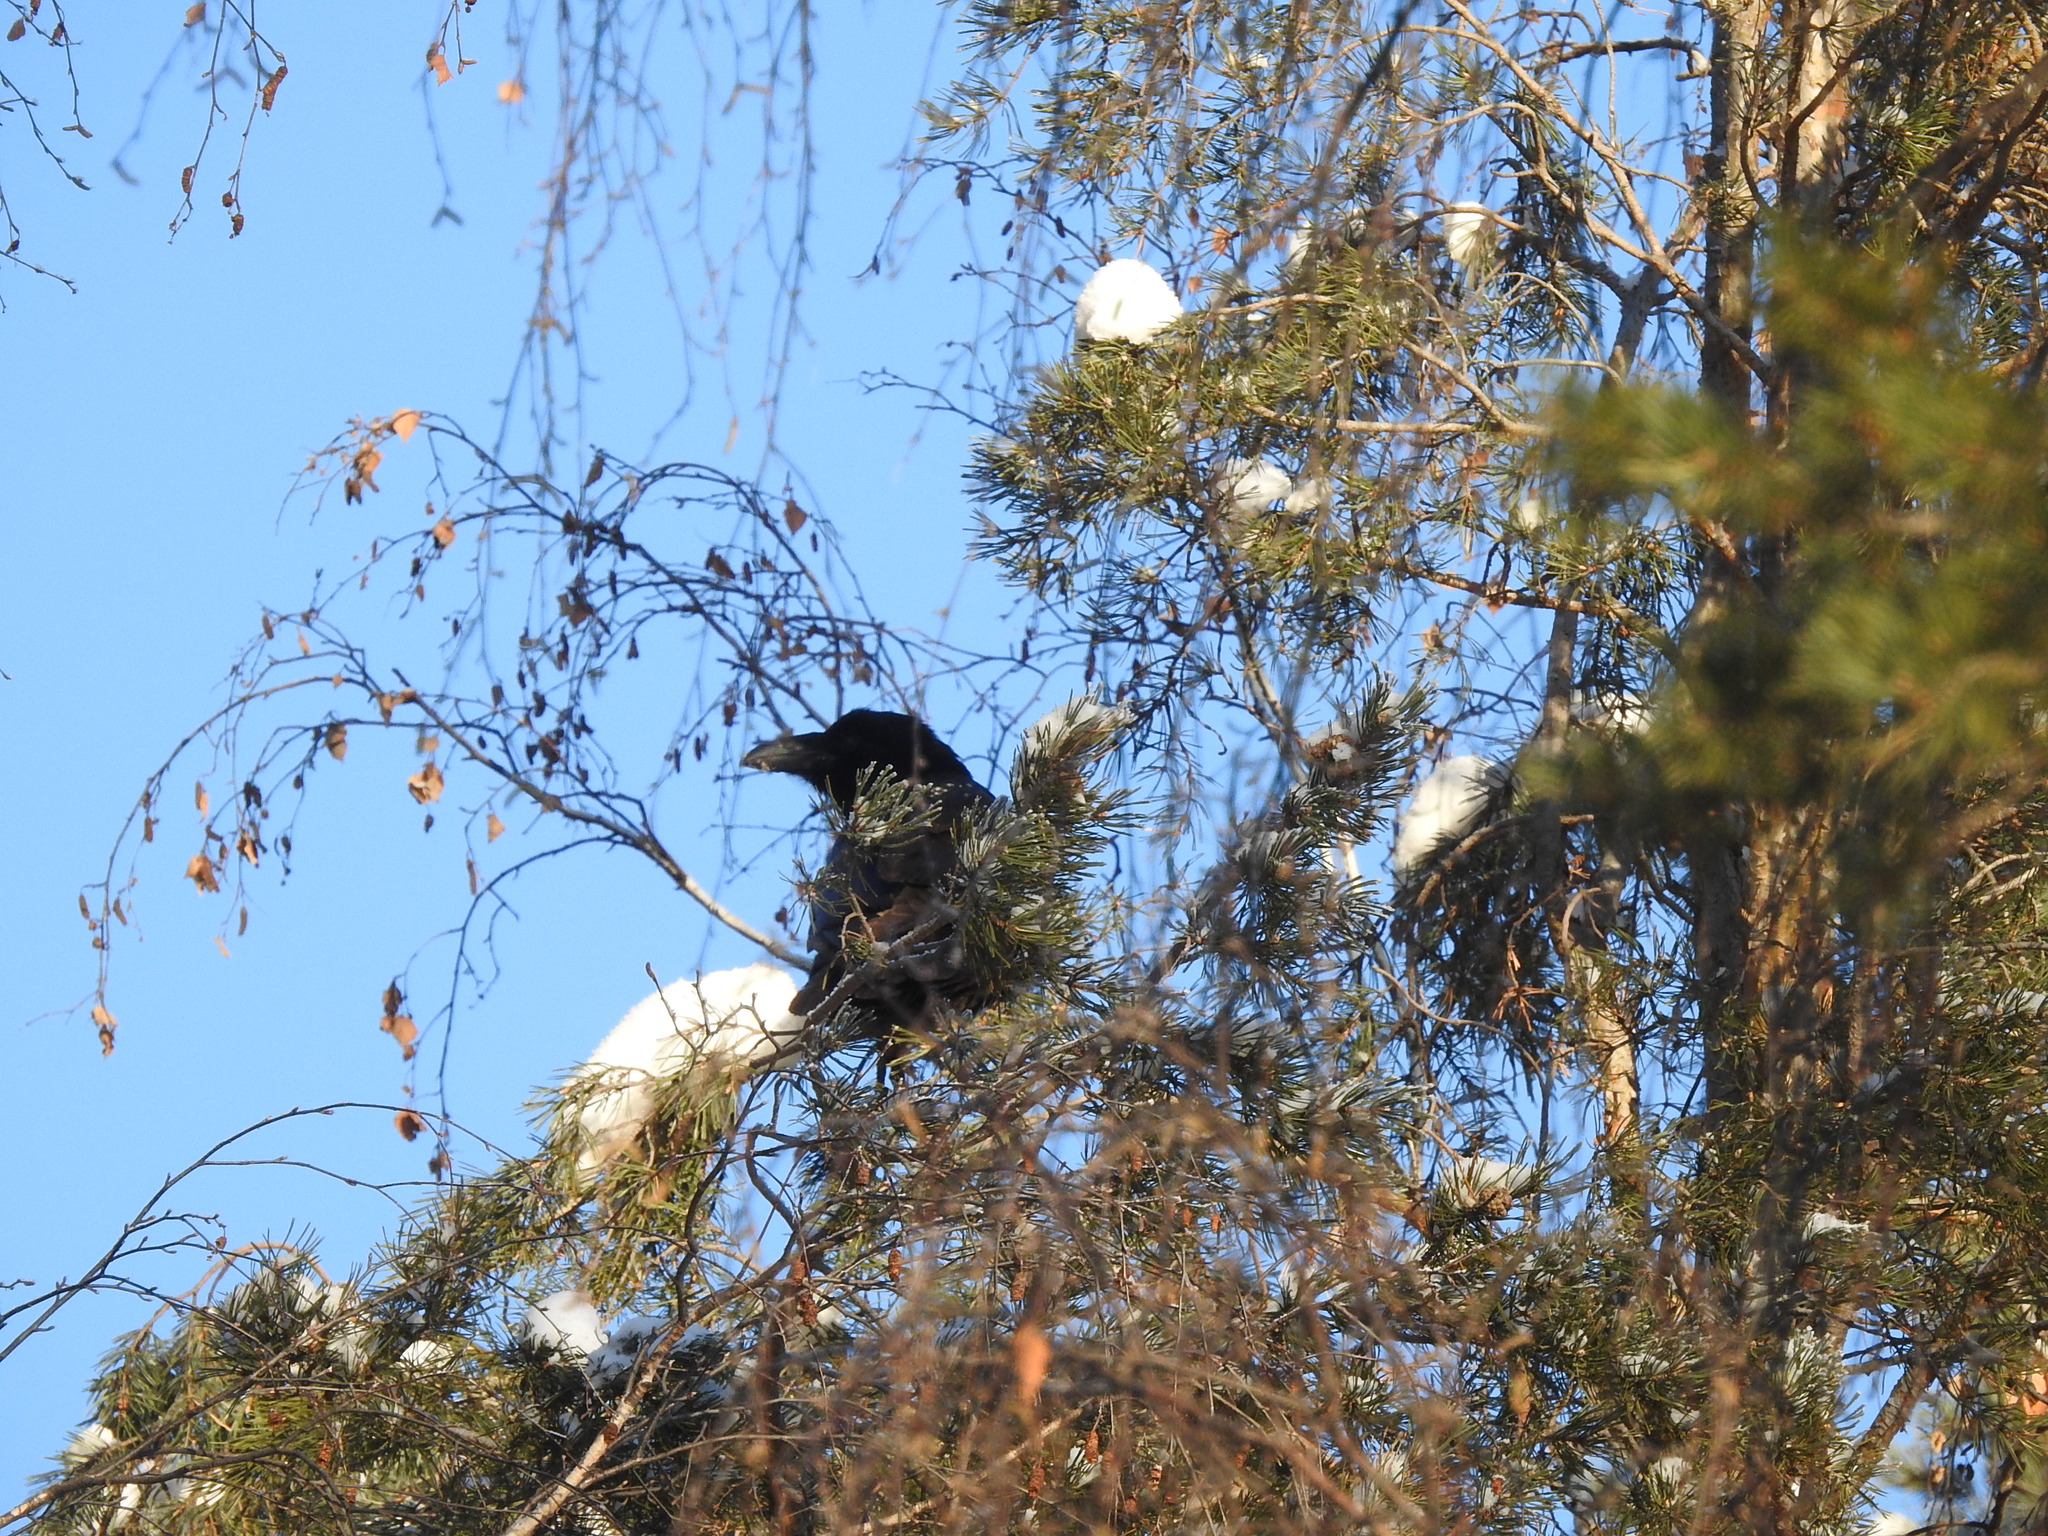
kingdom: Animalia
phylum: Chordata
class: Aves
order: Passeriformes
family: Corvidae
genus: Corvus
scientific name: Corvus corax
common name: Common raven
